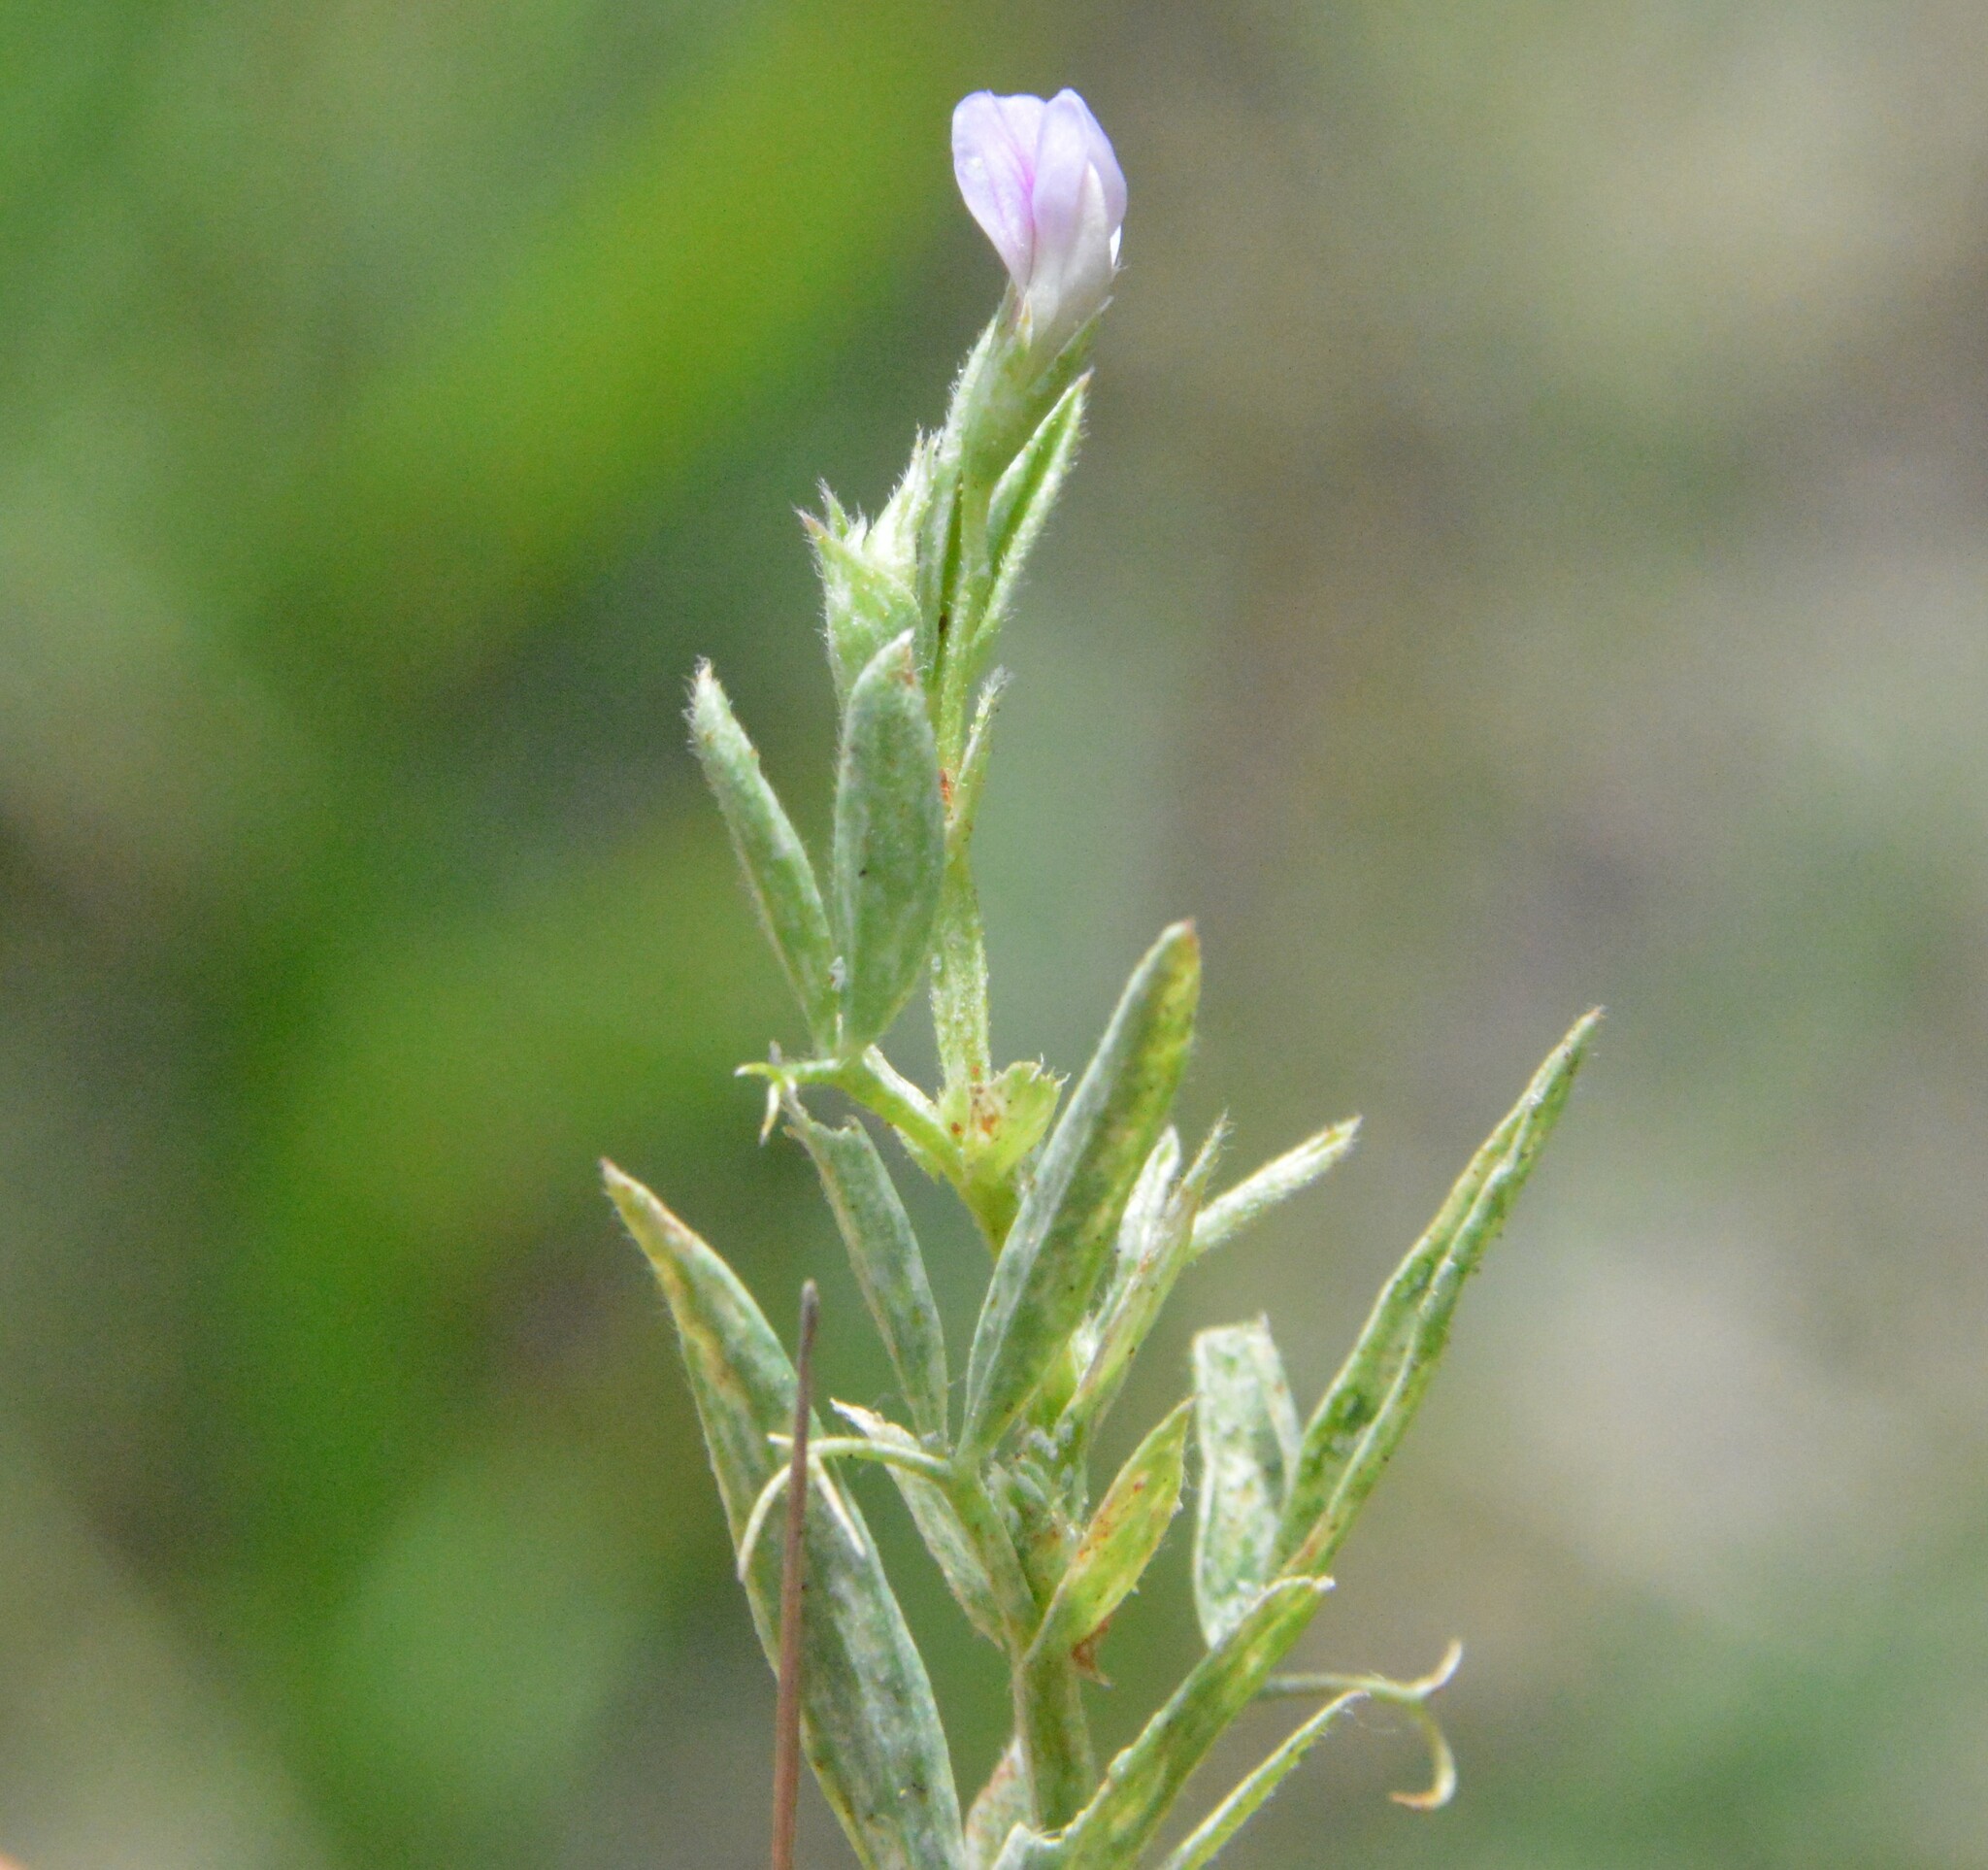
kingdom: Plantae
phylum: Tracheophyta
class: Magnoliopsida
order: Fabales
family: Fabaceae
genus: Lathyrus
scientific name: Lathyrus pusillus
